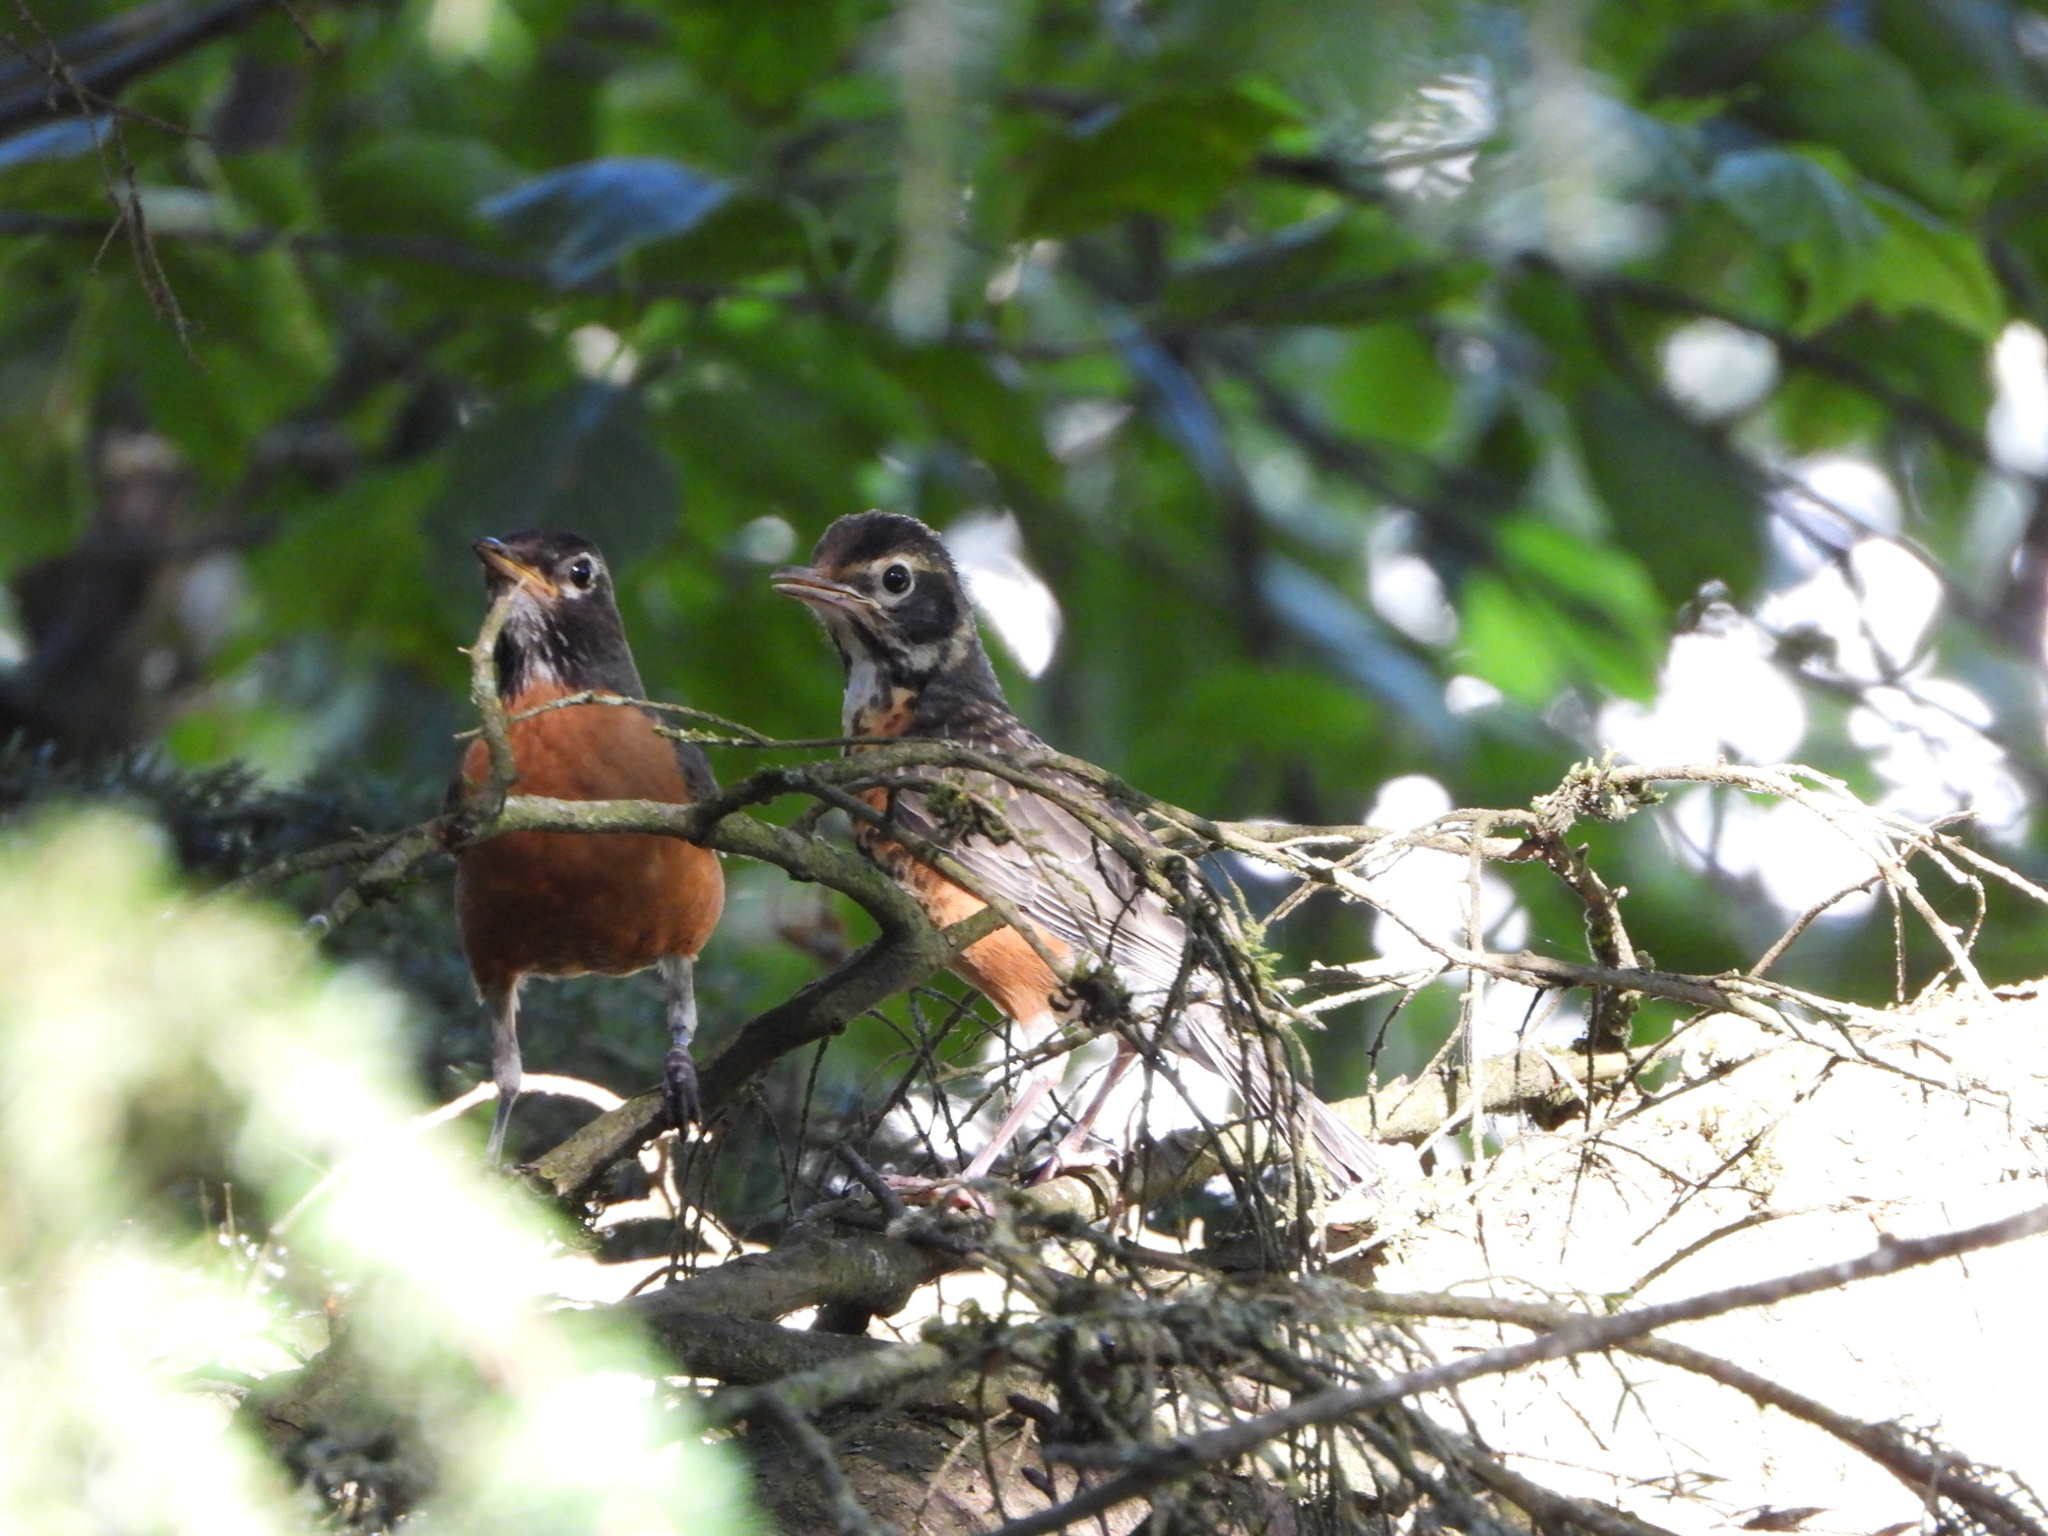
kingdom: Animalia
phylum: Chordata
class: Aves
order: Passeriformes
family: Turdidae
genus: Turdus
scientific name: Turdus migratorius
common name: American robin
